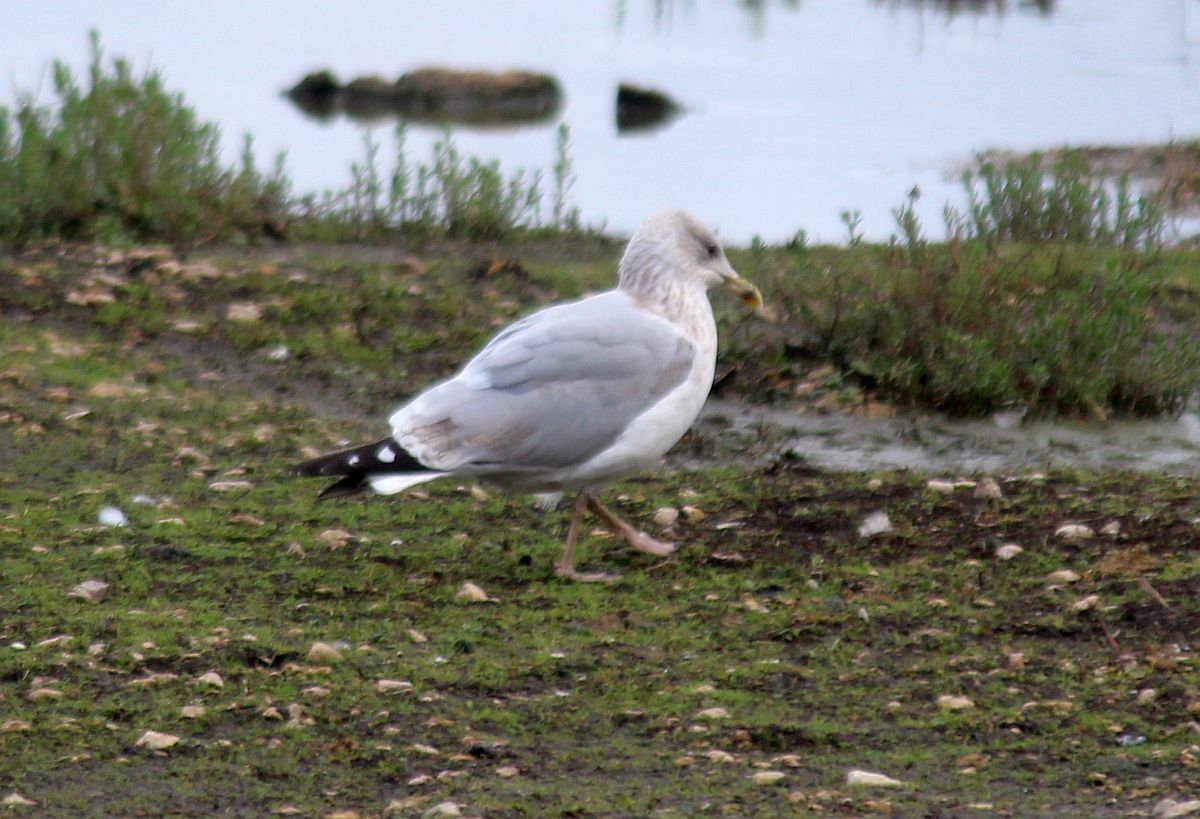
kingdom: Animalia
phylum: Chordata
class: Aves
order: Charadriiformes
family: Laridae
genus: Larus
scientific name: Larus argentatus
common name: Herring gull
